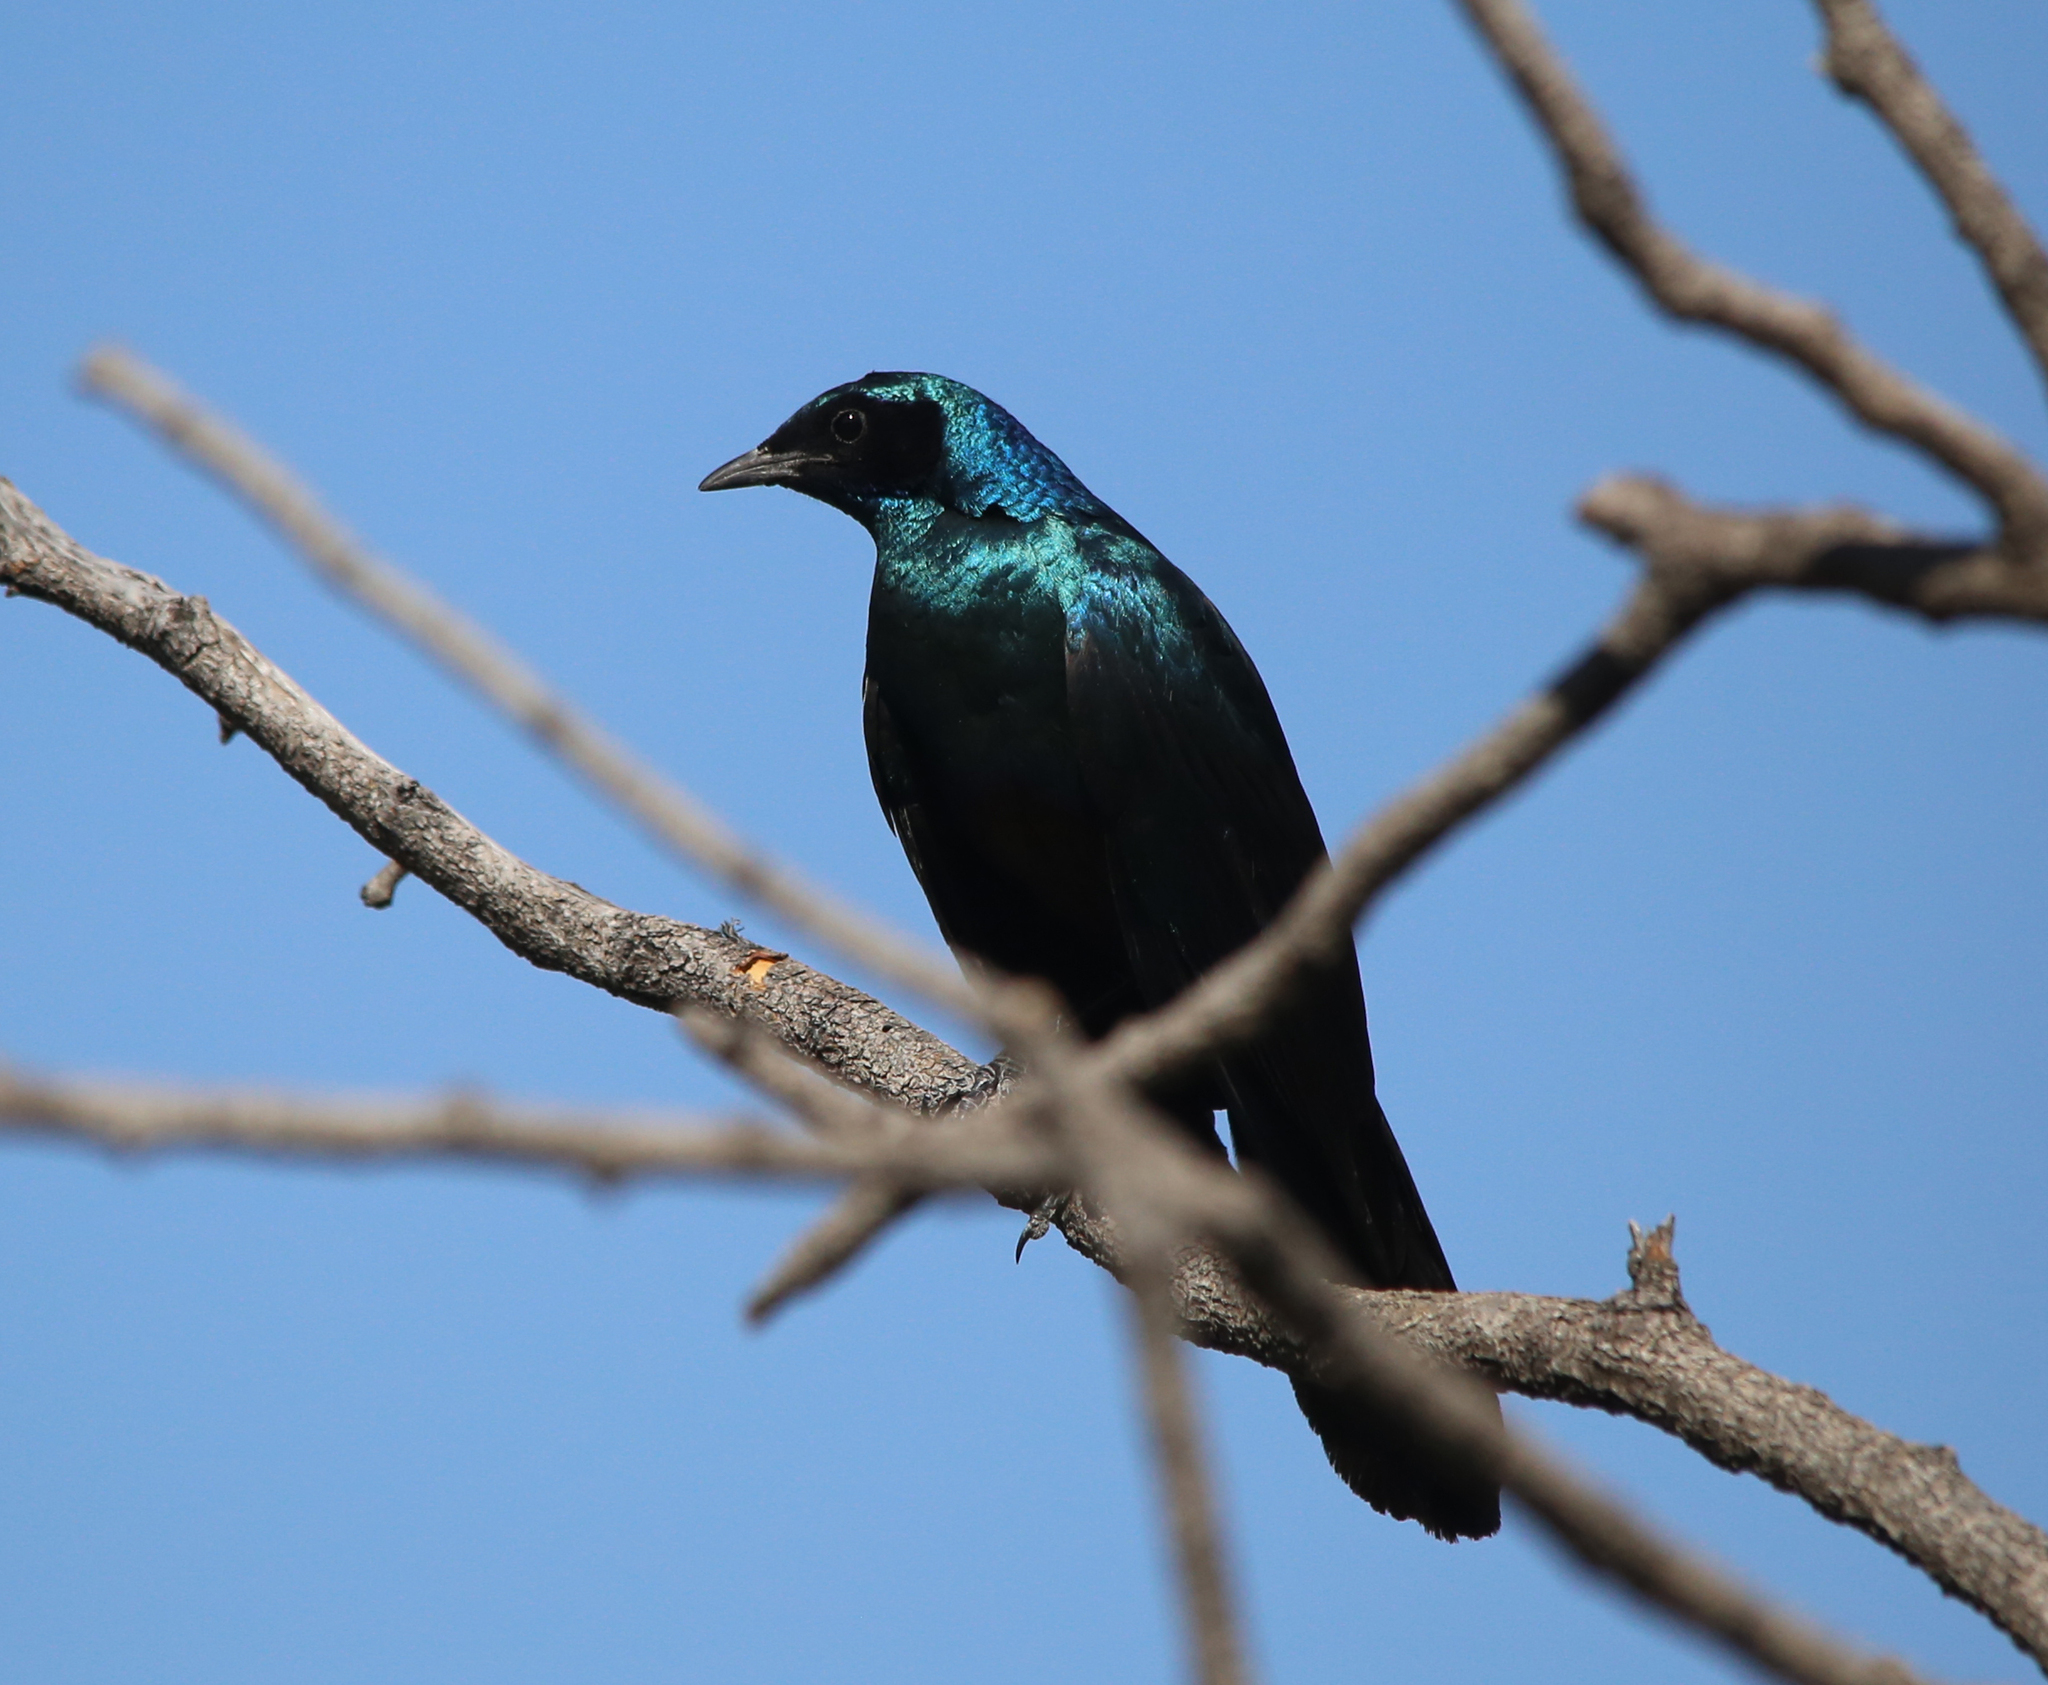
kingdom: Animalia
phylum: Chordata
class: Aves
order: Passeriformes
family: Sturnidae
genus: Lamprotornis
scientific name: Lamprotornis australis
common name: Burchell's starling
